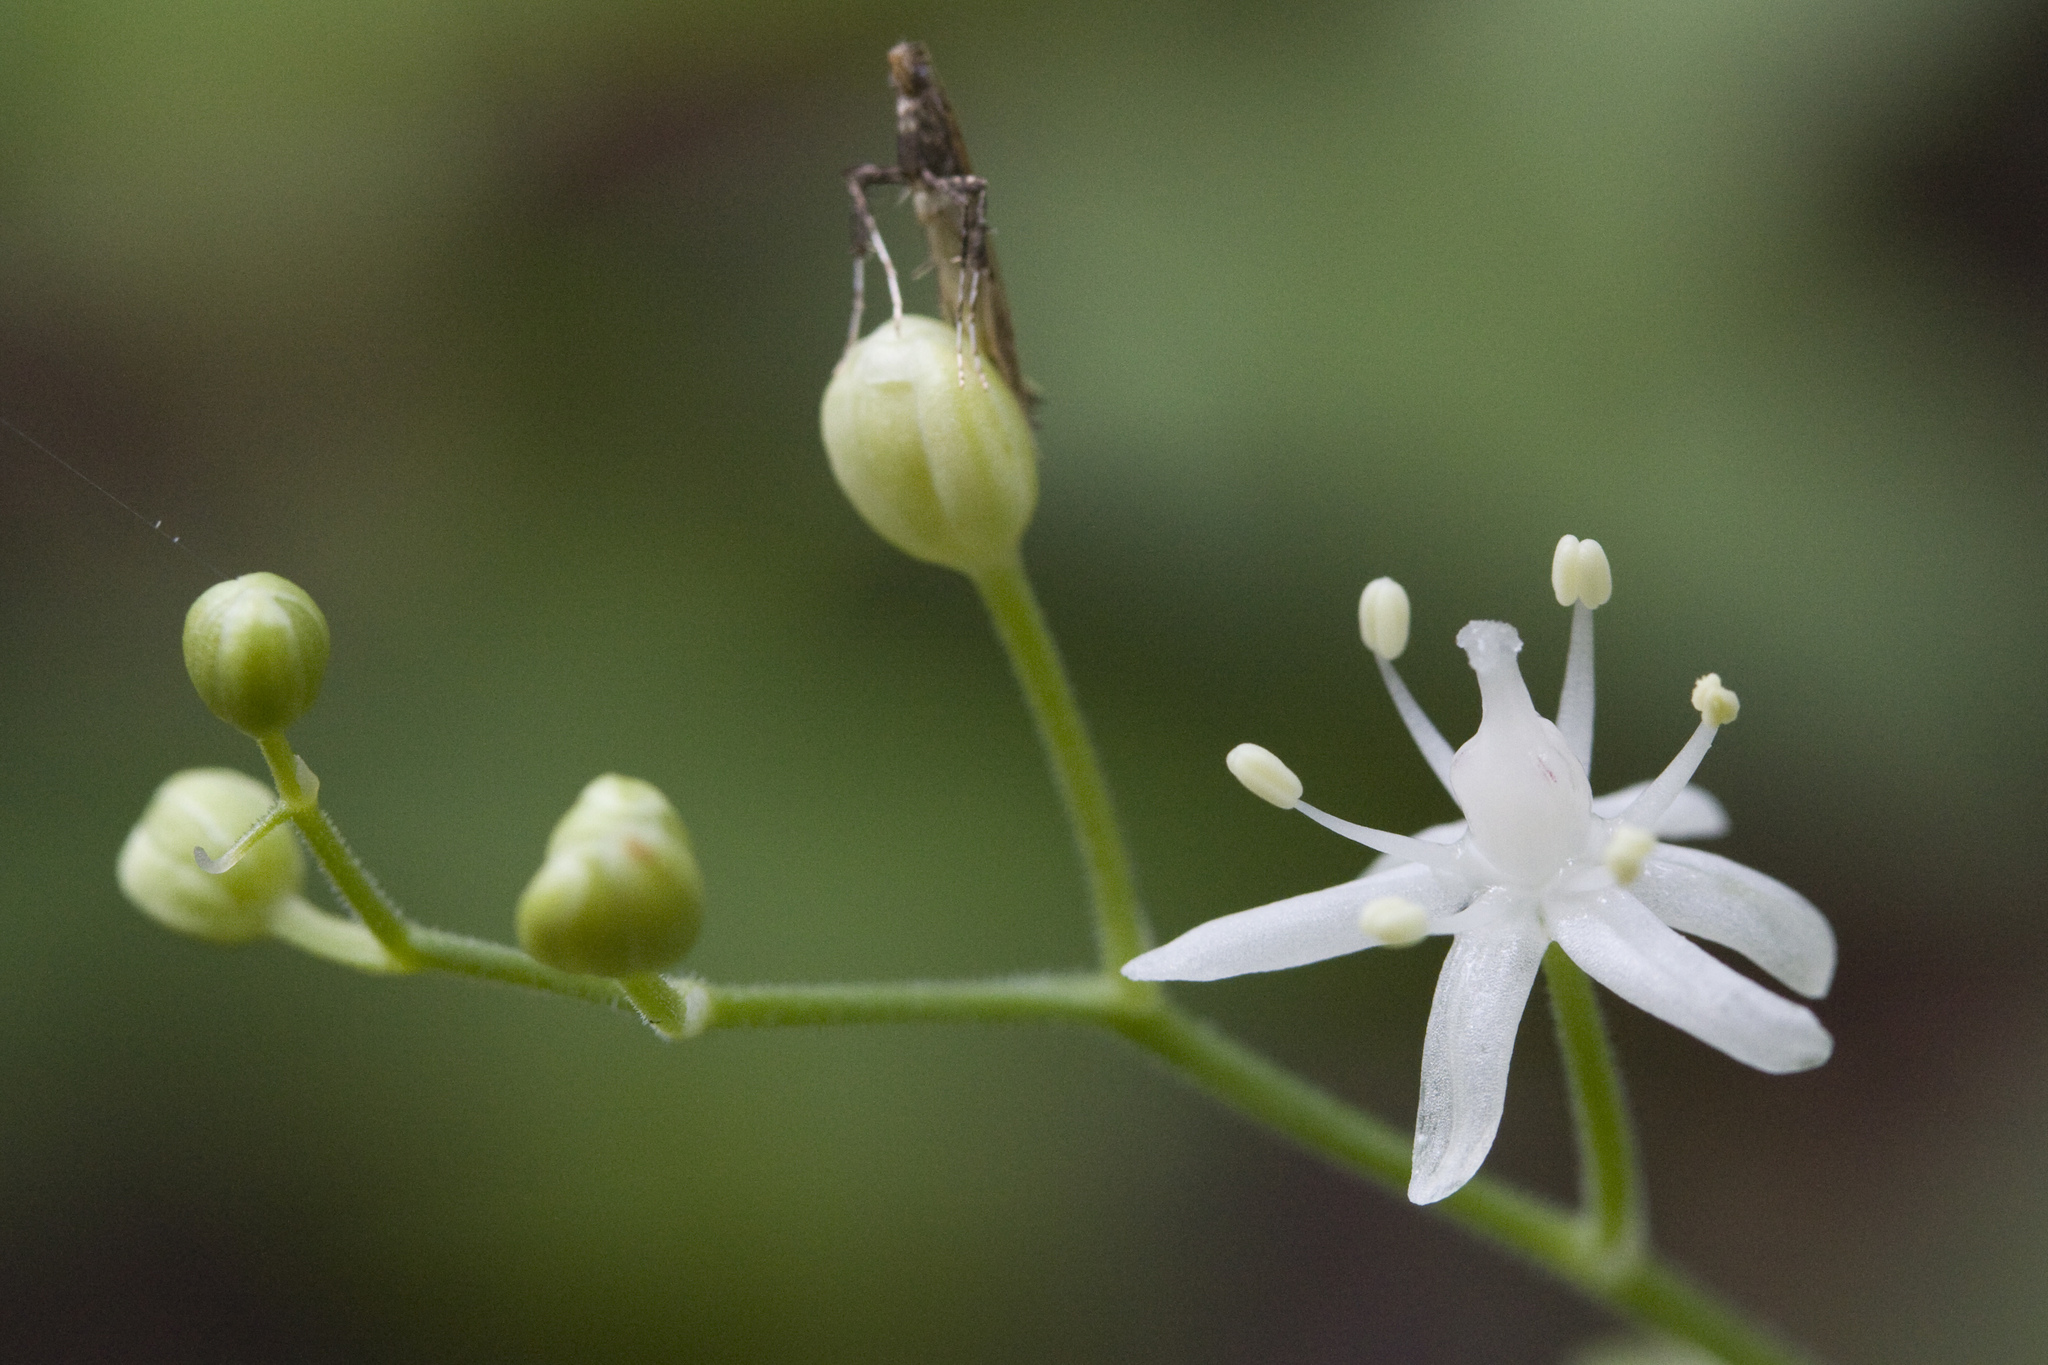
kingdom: Plantae
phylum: Tracheophyta
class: Liliopsida
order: Asparagales
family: Asparagaceae
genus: Maianthemum
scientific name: Maianthemum stellatum
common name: Little false solomon's seal
